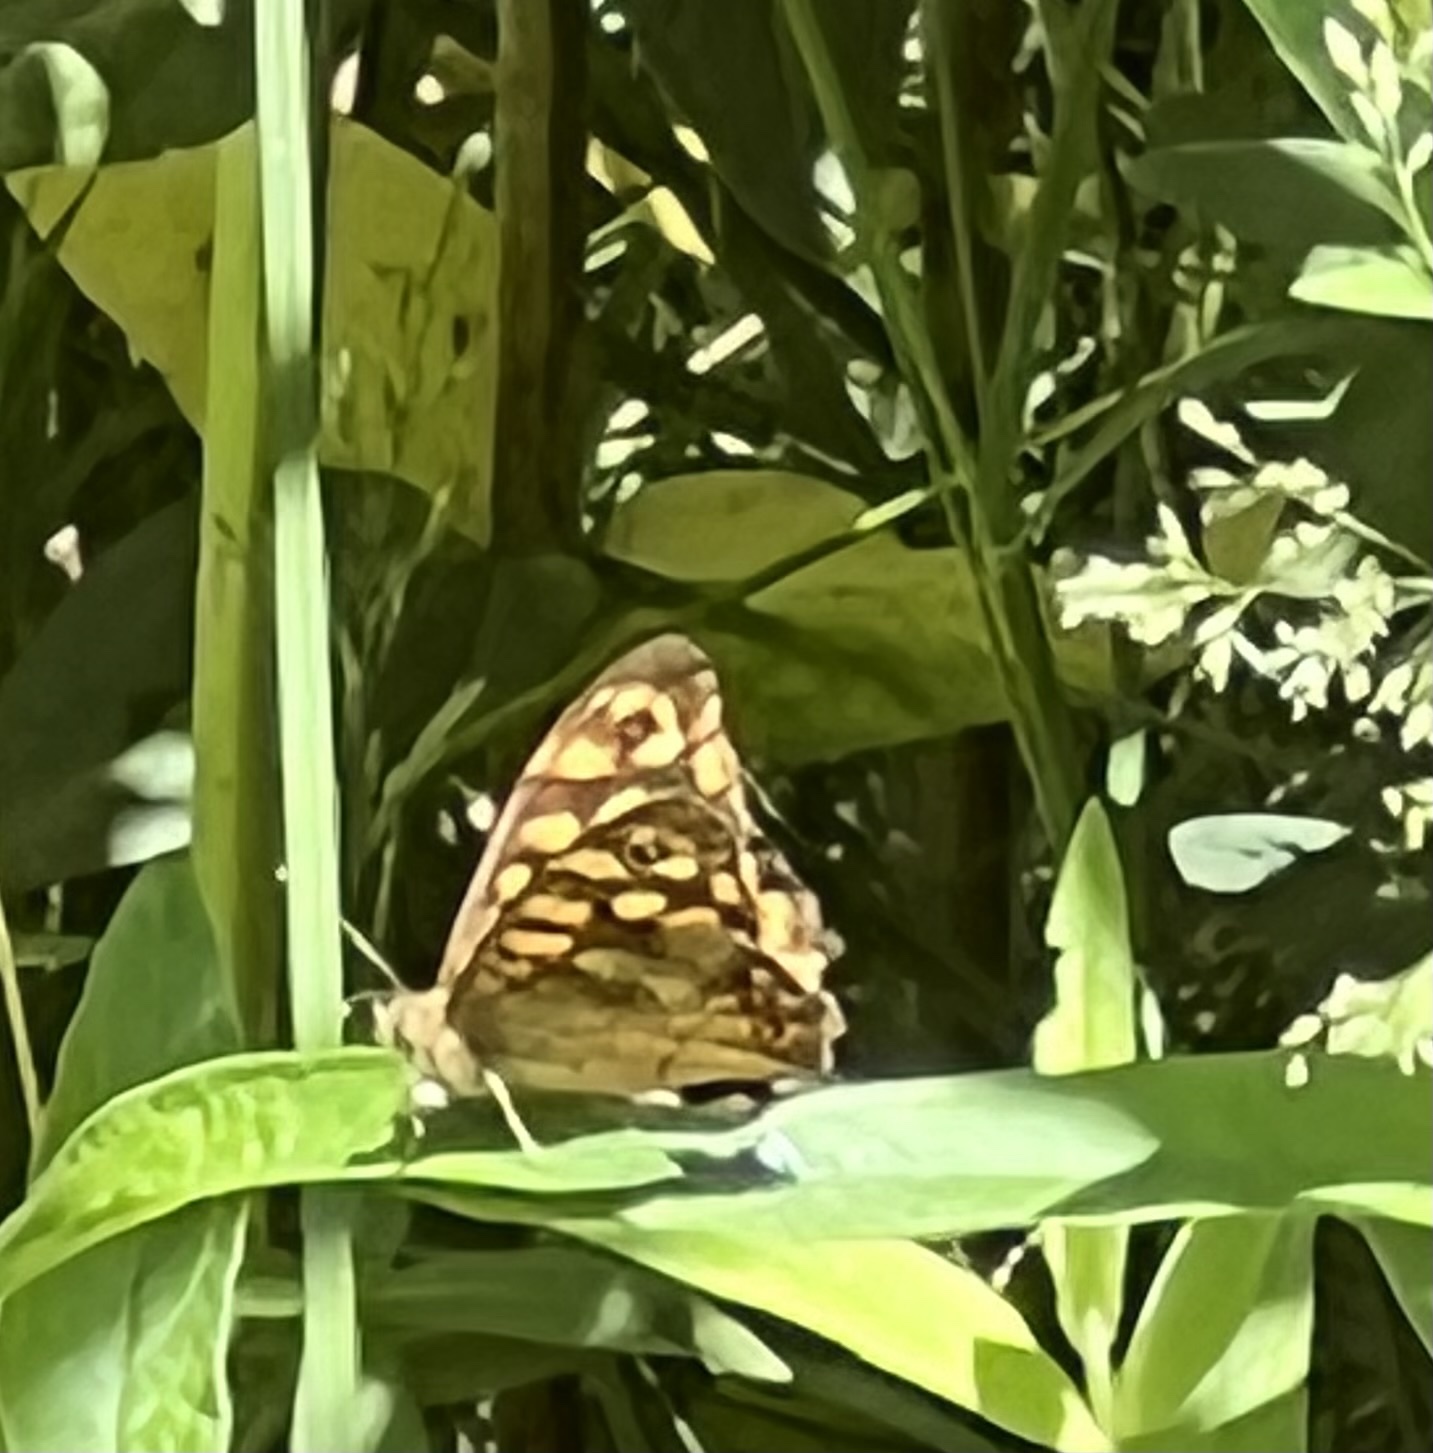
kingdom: Animalia
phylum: Arthropoda
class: Insecta
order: Lepidoptera
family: Nymphalidae
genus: Pararge
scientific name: Pararge aegeria
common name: Speckled wood
